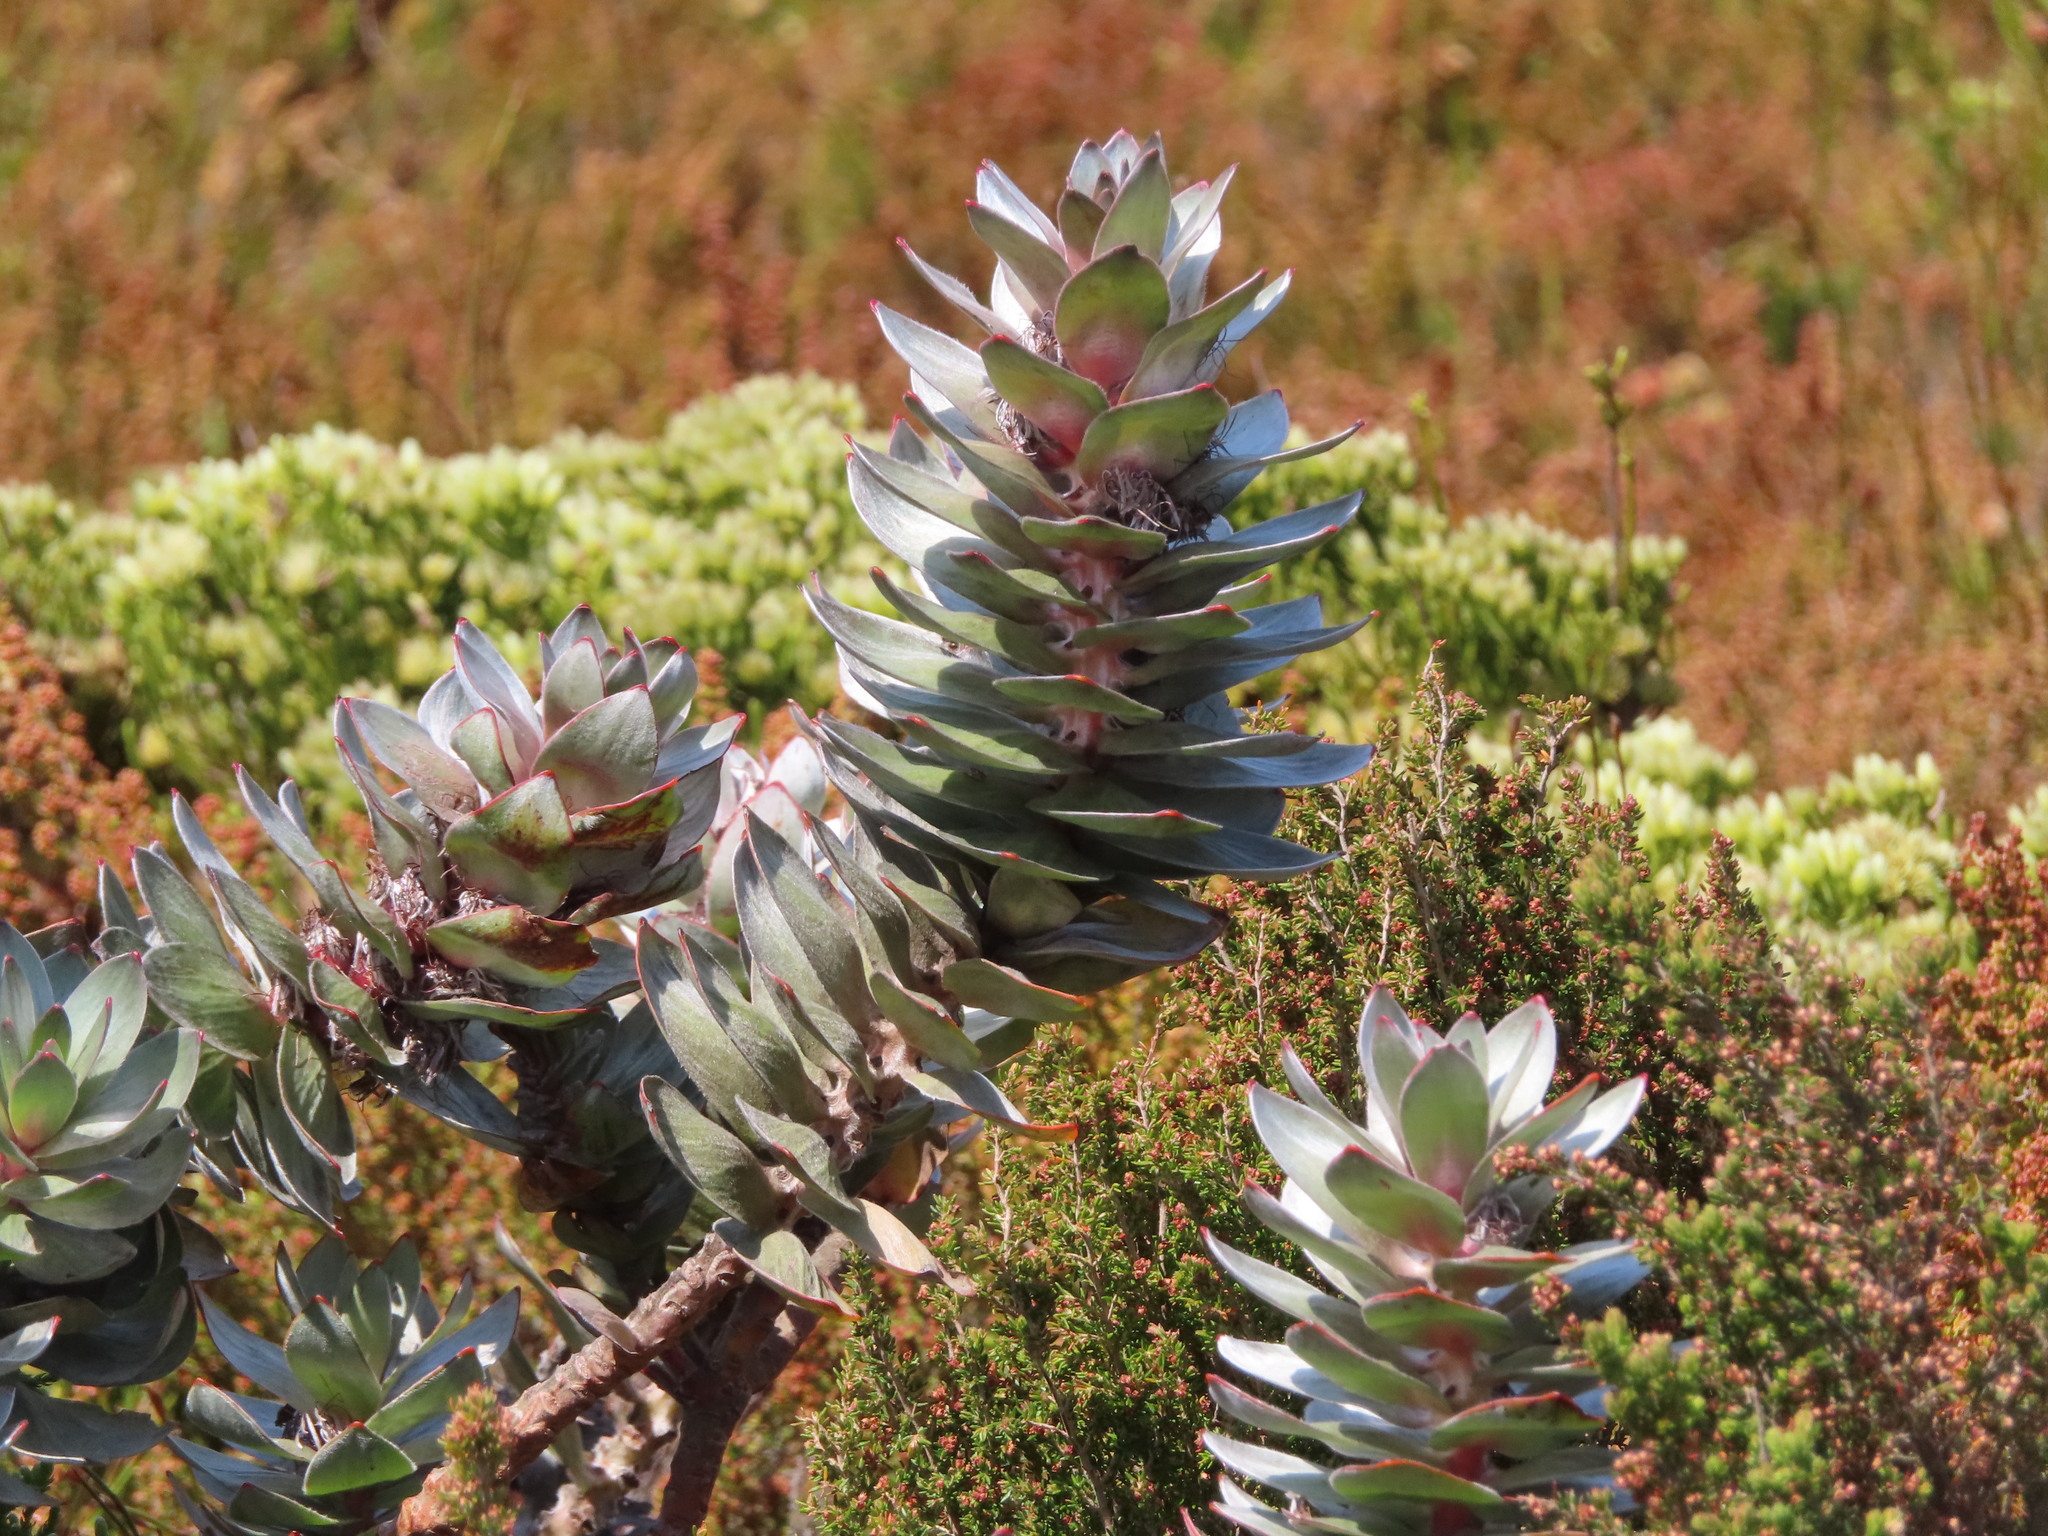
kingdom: Plantae
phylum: Tracheophyta
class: Magnoliopsida
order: Proteales
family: Proteaceae
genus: Mimetes
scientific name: Mimetes argenteus
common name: Silver pagoda
